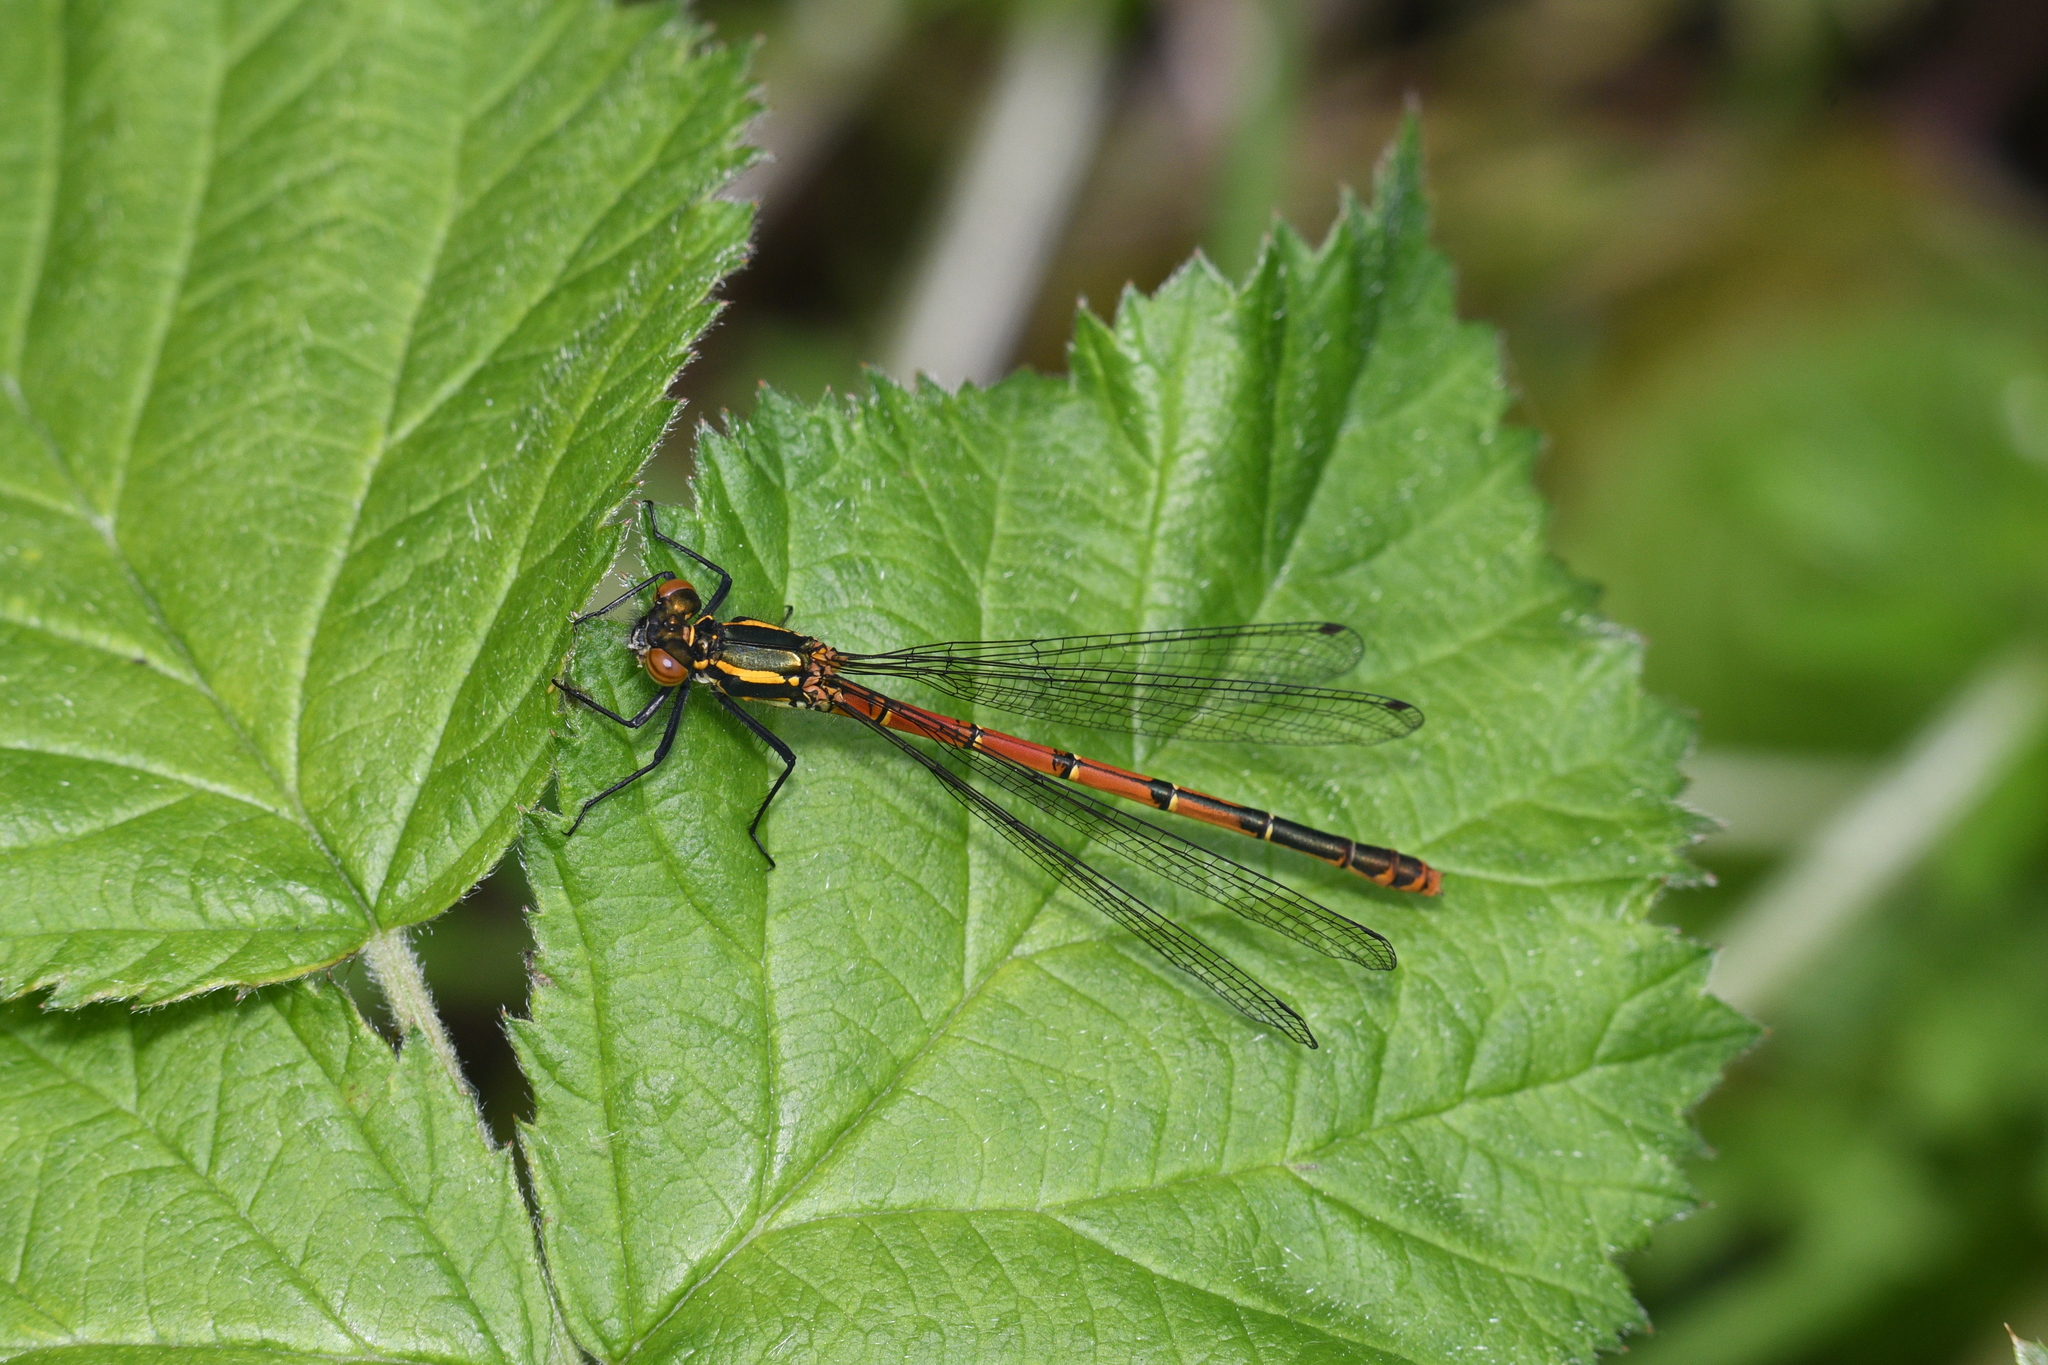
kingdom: Animalia
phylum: Arthropoda
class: Insecta
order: Odonata
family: Coenagrionidae
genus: Pyrrhosoma
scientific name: Pyrrhosoma nymphula
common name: Large red damsel
